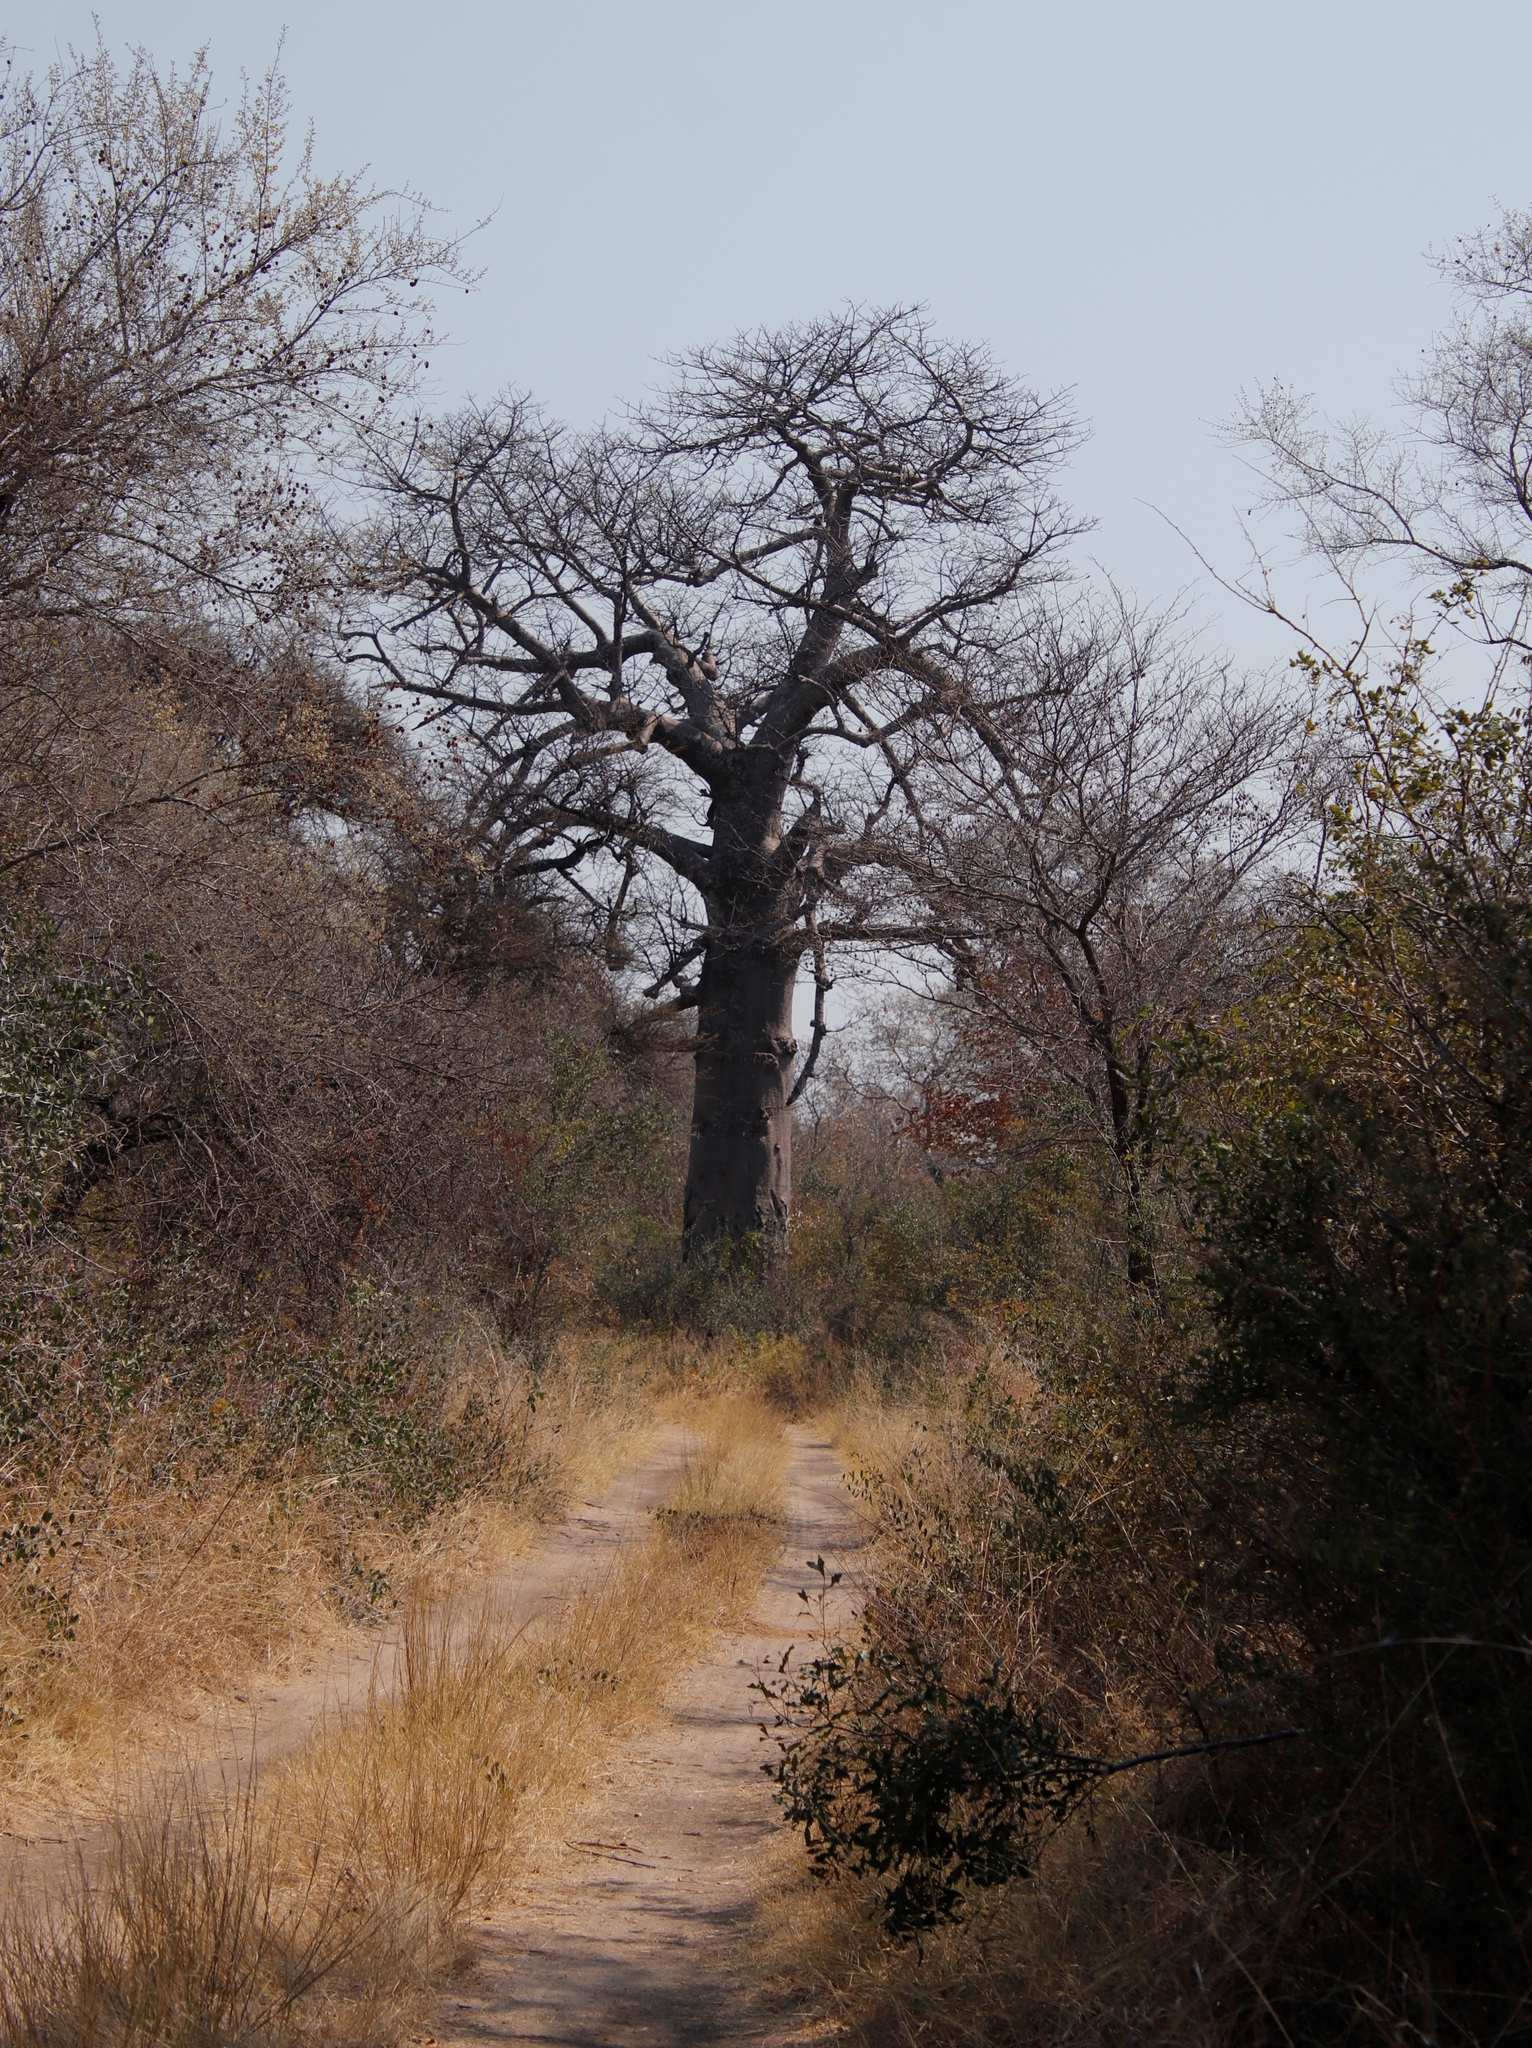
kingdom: Plantae
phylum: Tracheophyta
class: Magnoliopsida
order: Malvales
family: Malvaceae
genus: Adansonia
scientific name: Adansonia digitata
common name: Dead-rat-tree
